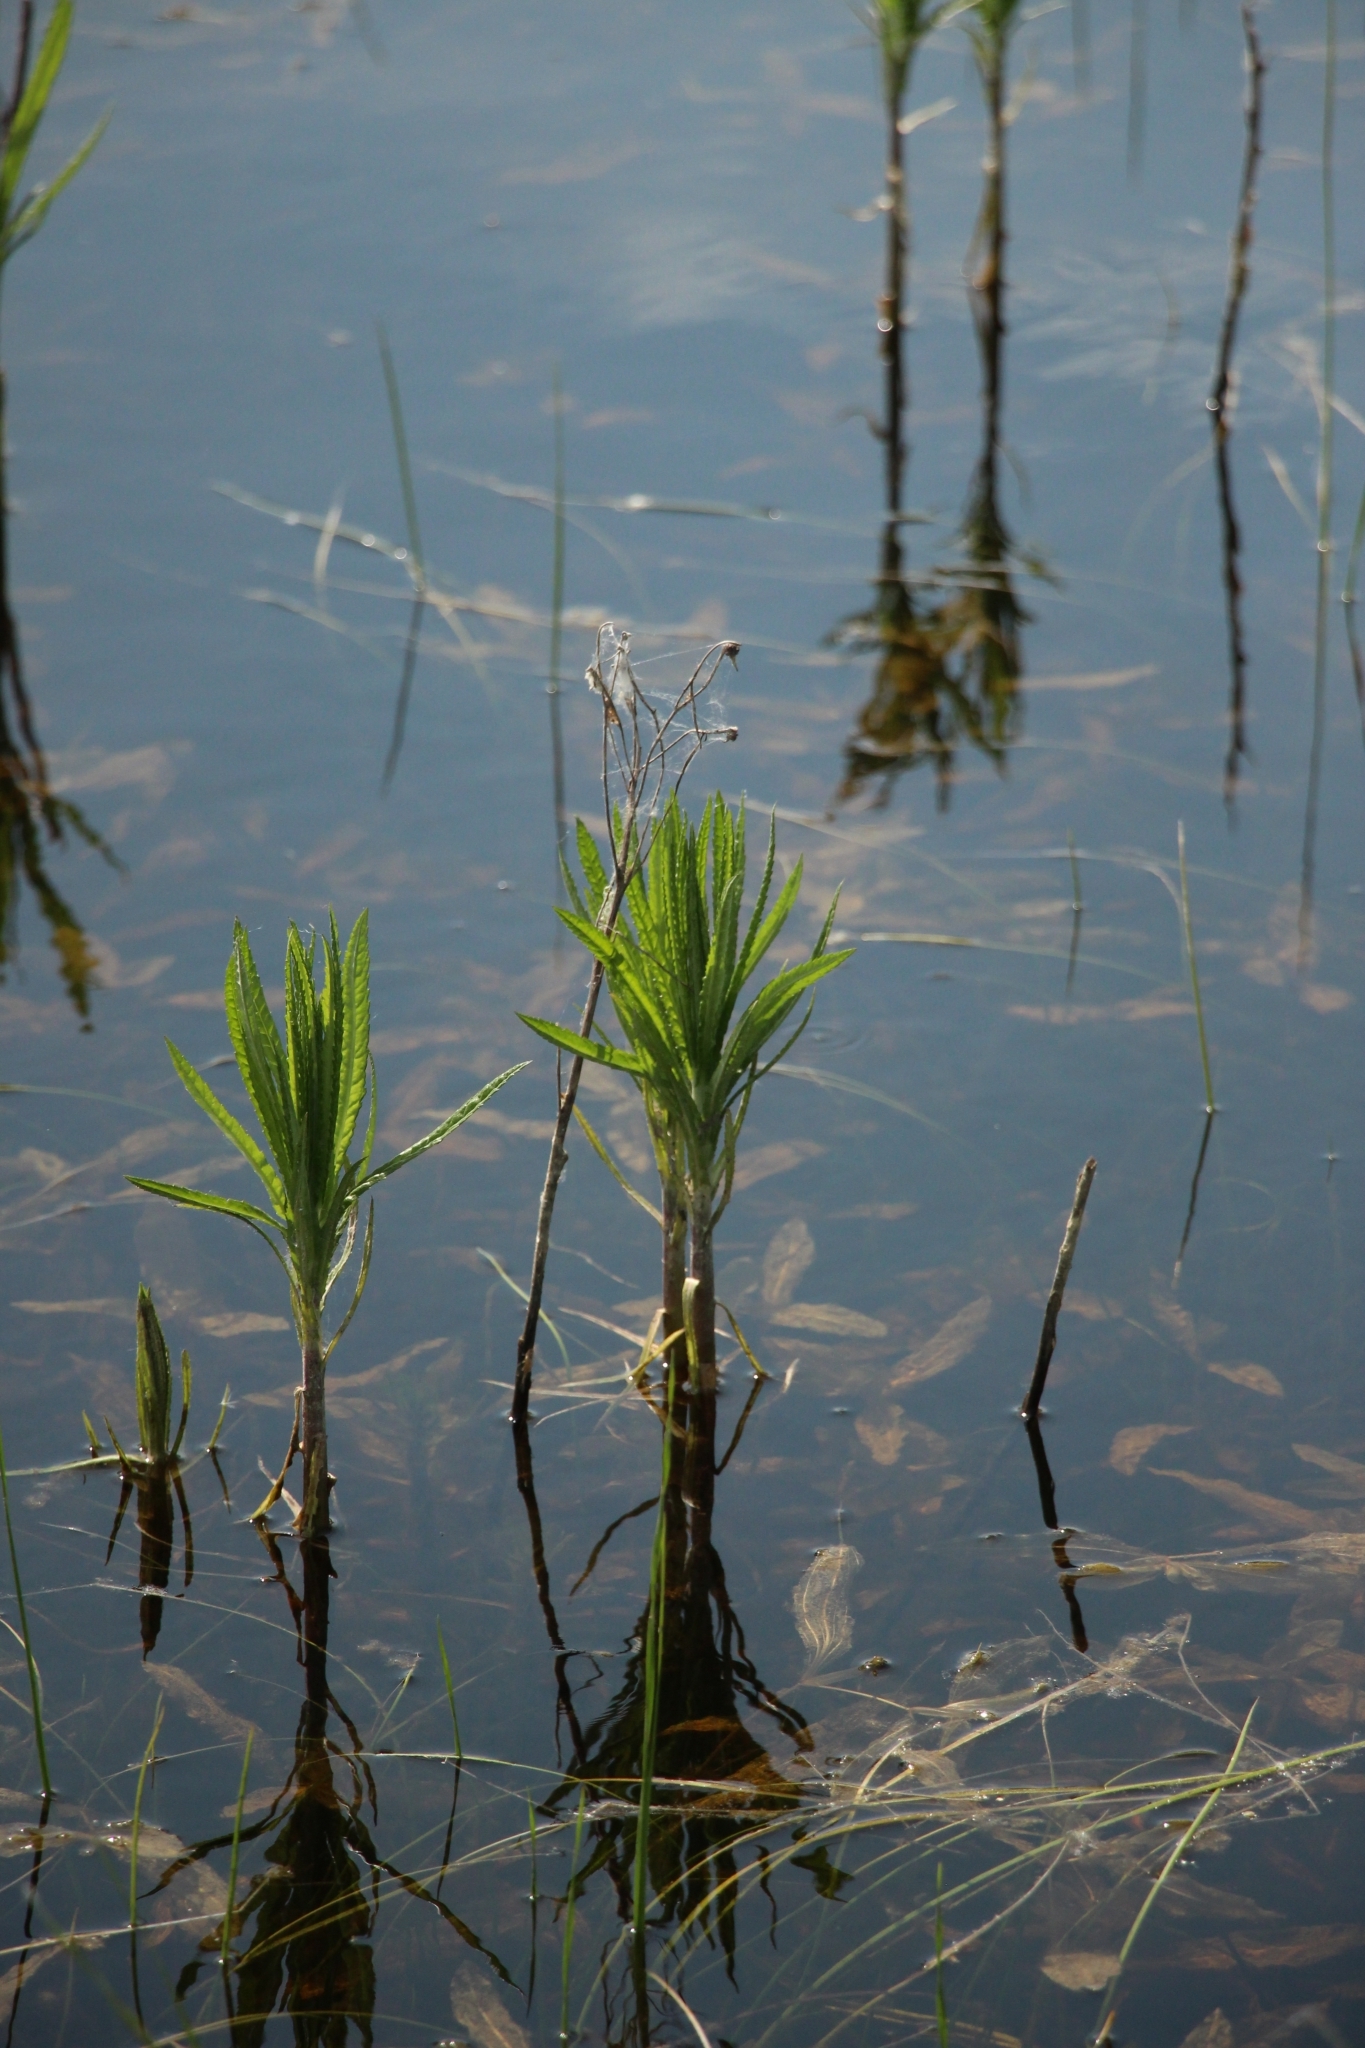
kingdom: Plantae
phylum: Tracheophyta
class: Magnoliopsida
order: Asterales
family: Asteraceae
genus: Jacobaea
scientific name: Jacobaea paludosa
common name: Fen ragwort
